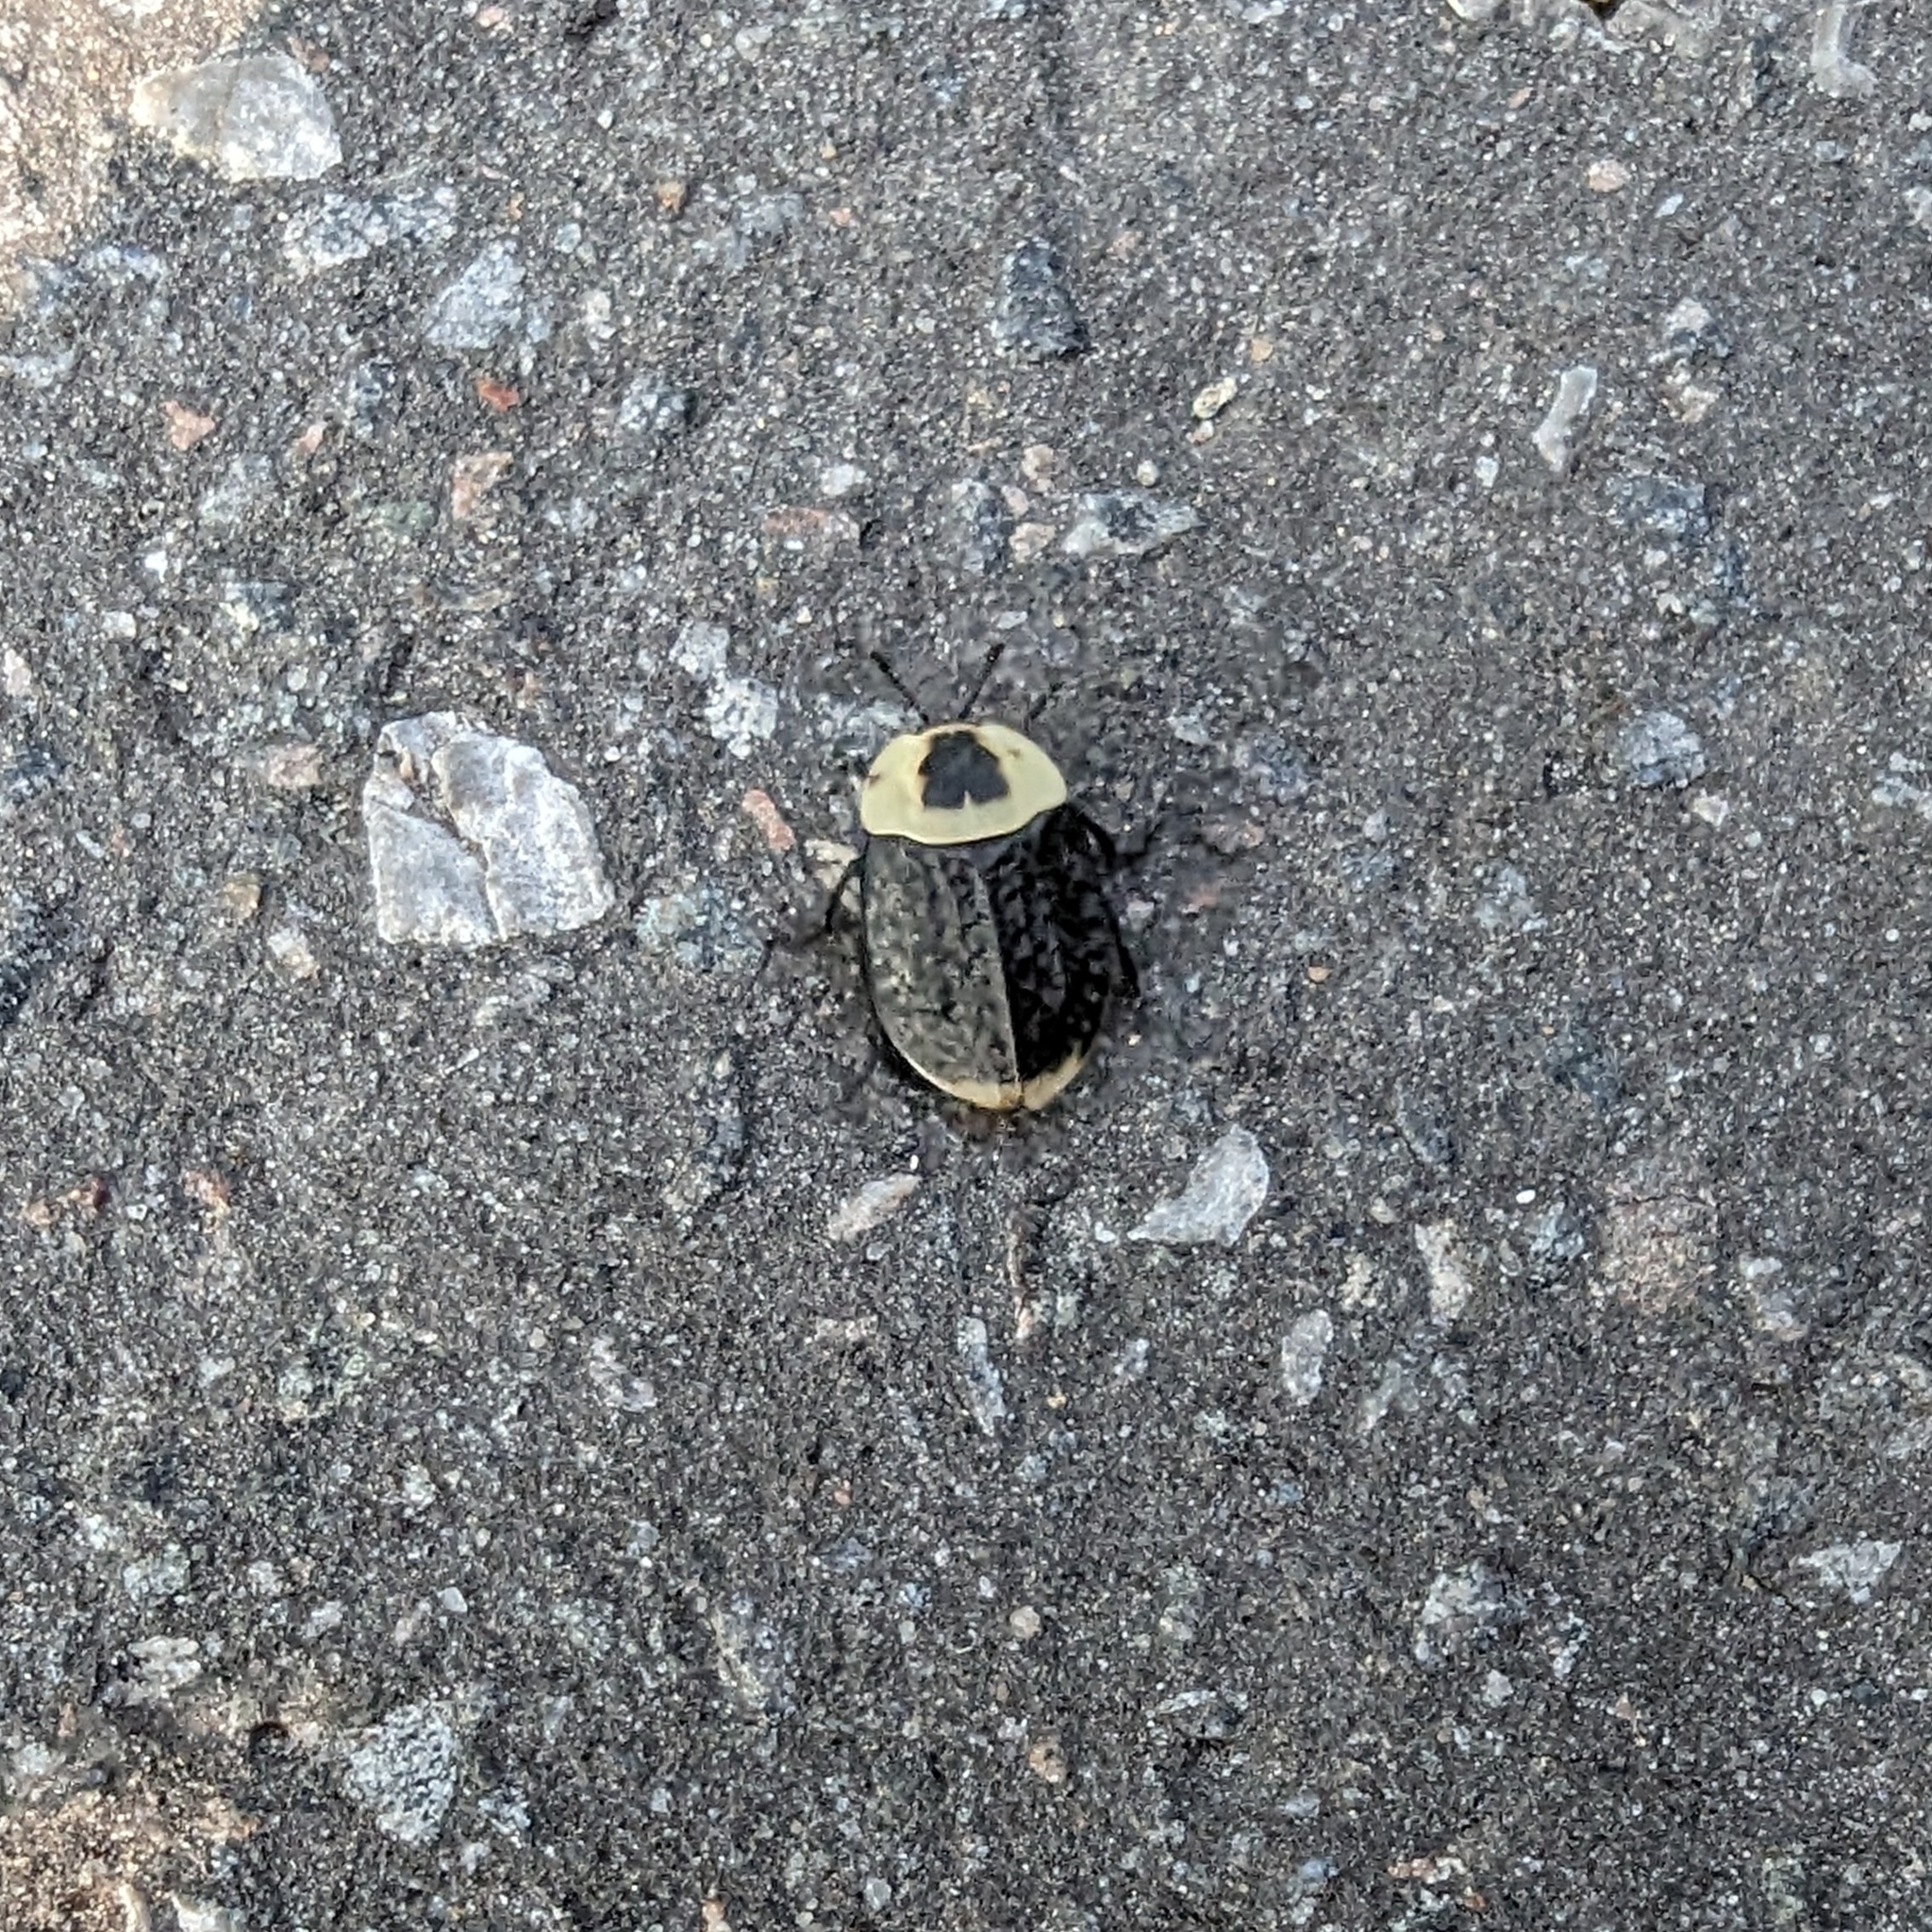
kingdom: Animalia
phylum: Arthropoda
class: Insecta
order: Coleoptera
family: Staphylinidae
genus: Necrophila
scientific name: Necrophila americana
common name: American carrion beetle
